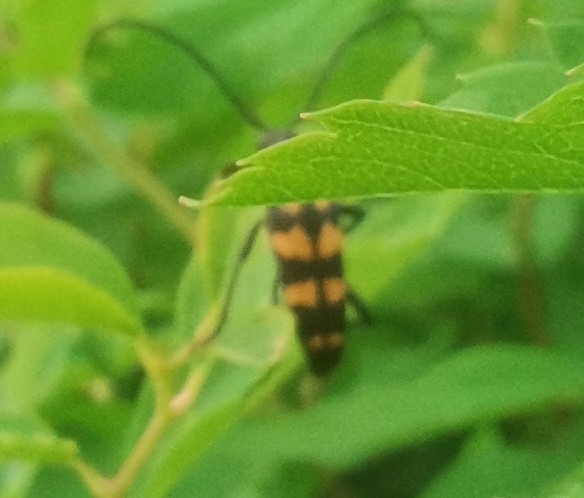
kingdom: Animalia
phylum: Arthropoda
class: Insecta
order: Coleoptera
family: Cerambycidae
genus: Leptura
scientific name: Leptura quadrifasciata
